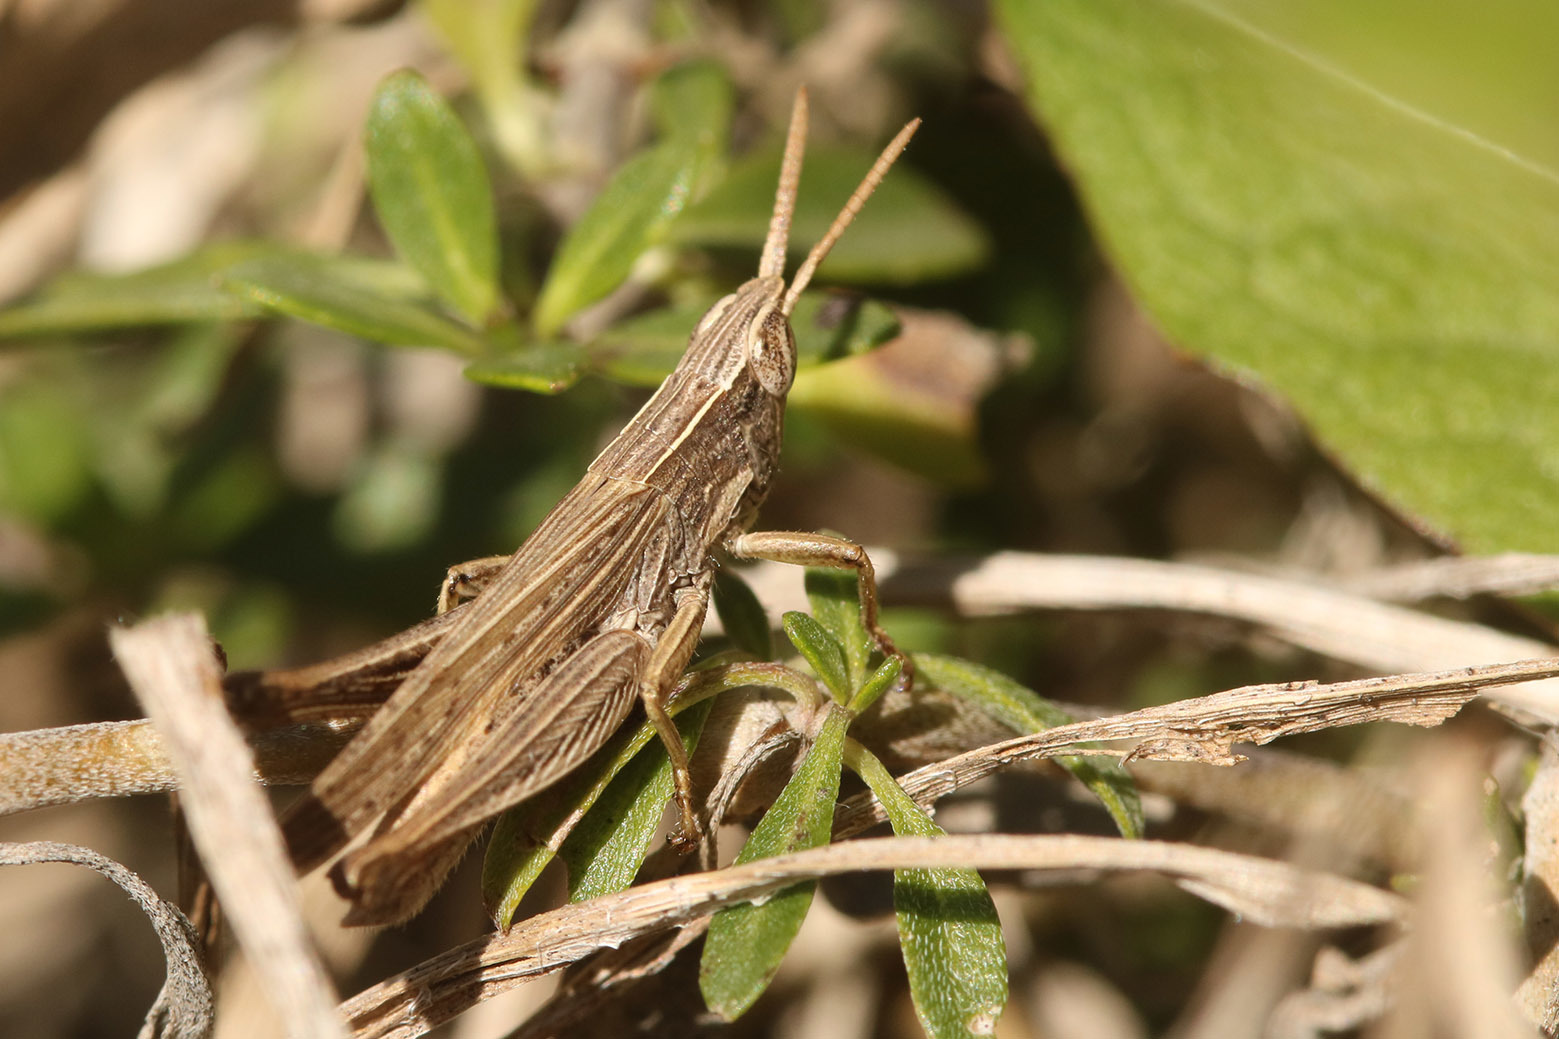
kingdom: Animalia
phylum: Arthropoda
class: Insecta
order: Orthoptera
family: Acrididae
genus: Laplatacris
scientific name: Laplatacris dispar
